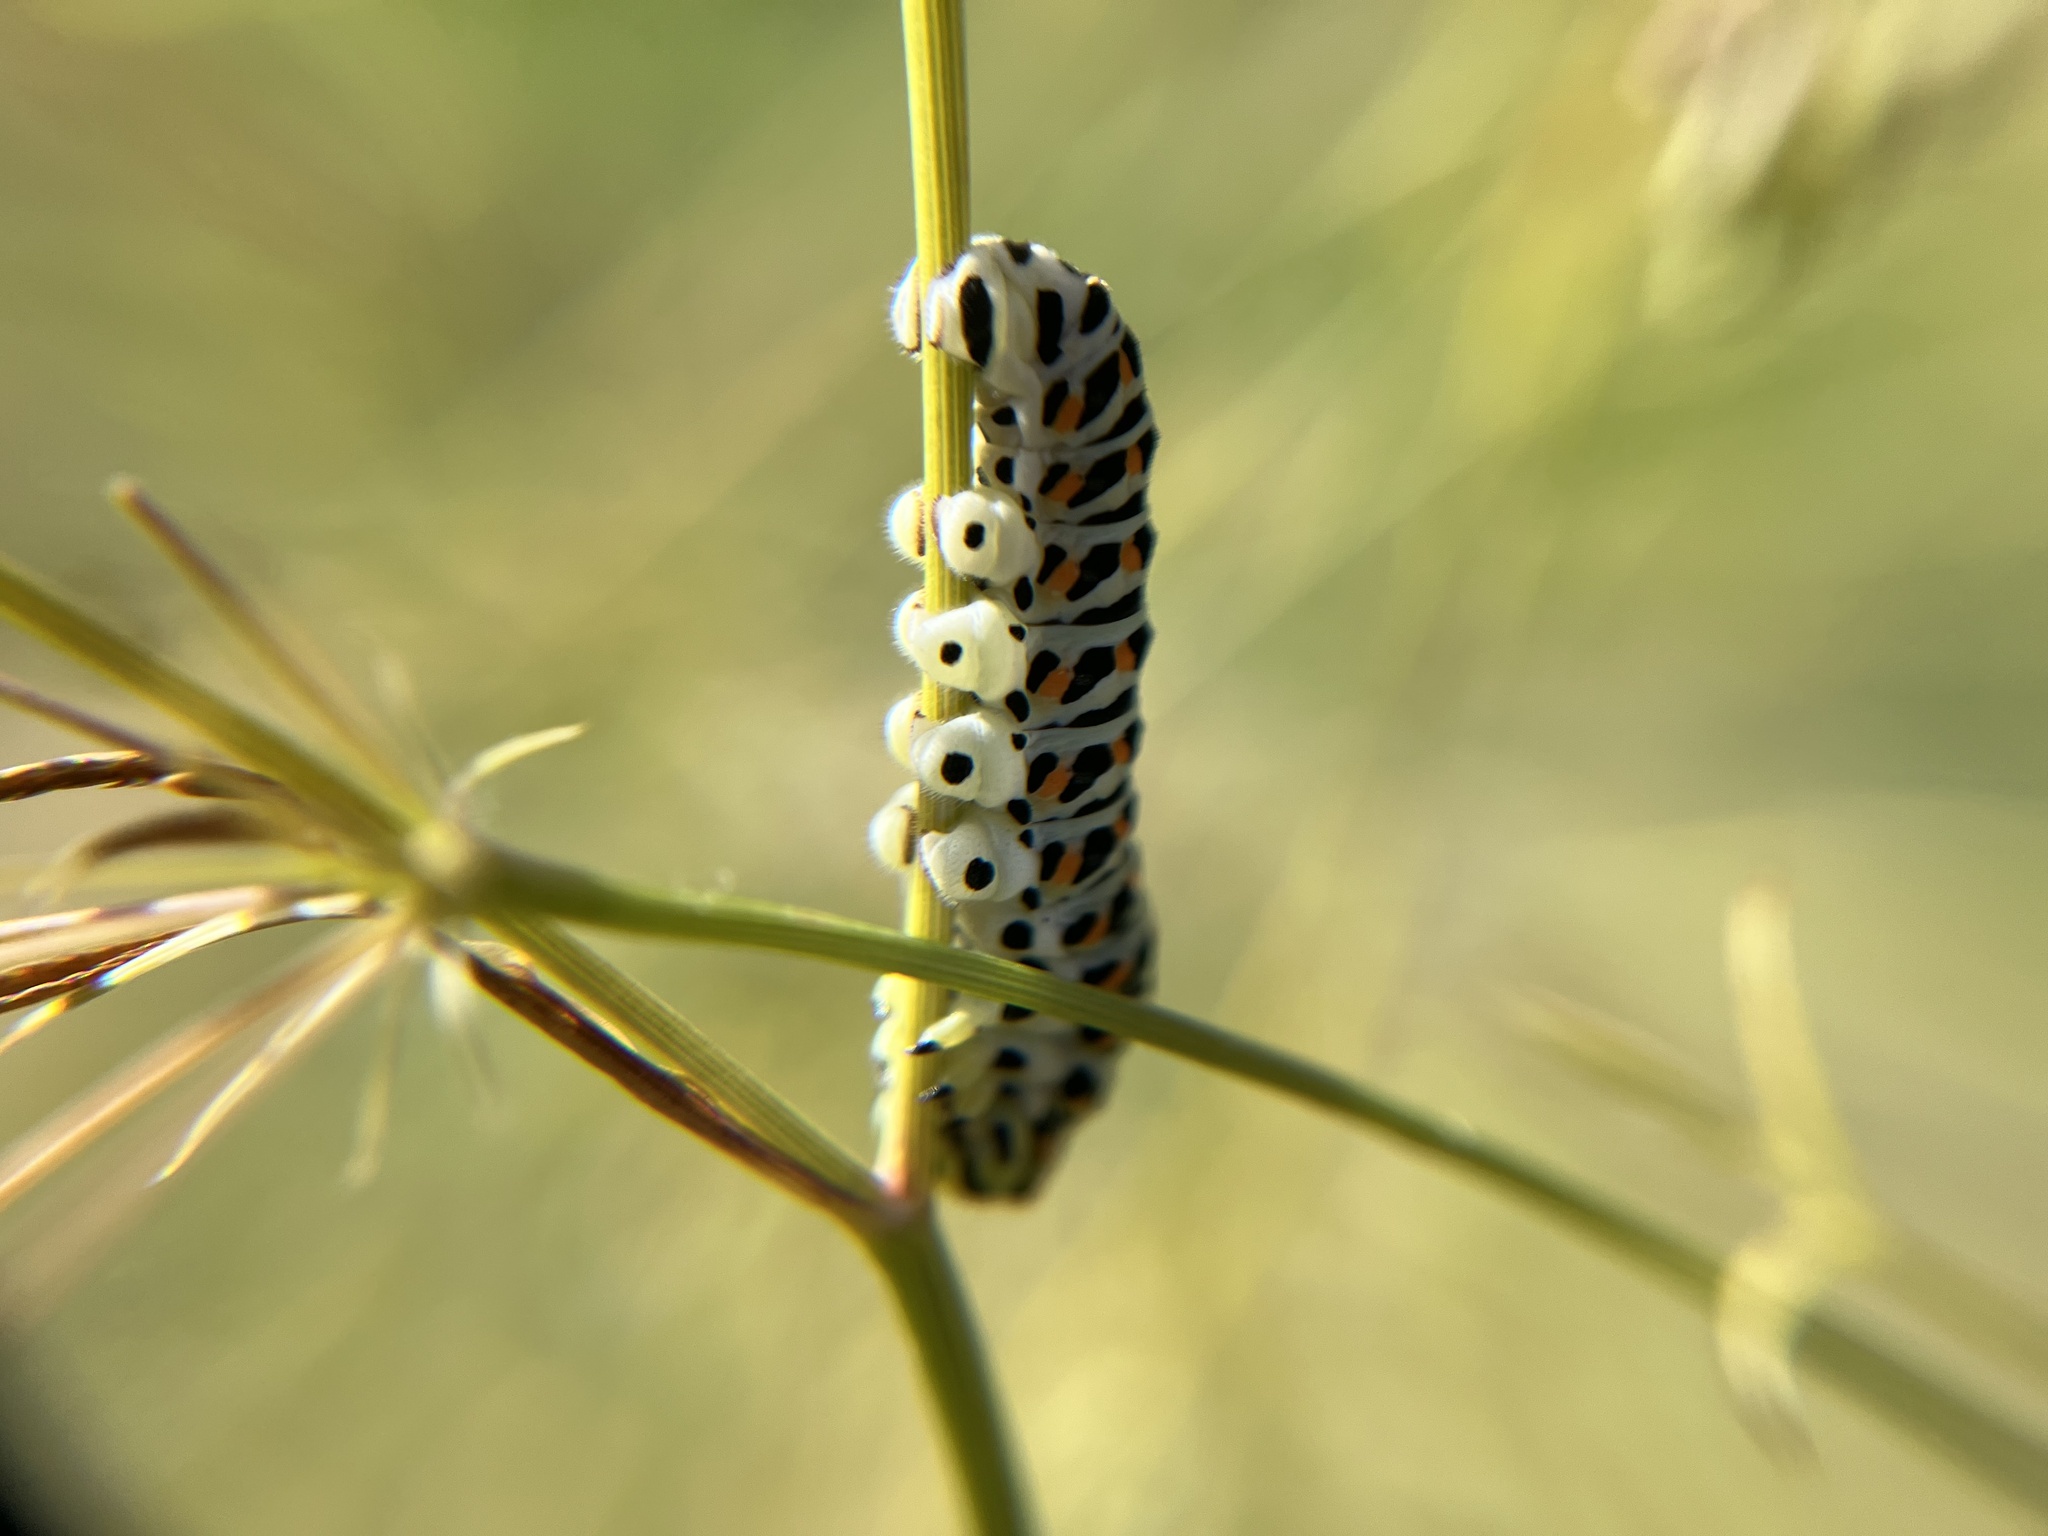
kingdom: Animalia
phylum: Arthropoda
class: Insecta
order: Lepidoptera
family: Papilionidae
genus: Papilio
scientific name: Papilio machaon
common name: Swallowtail
